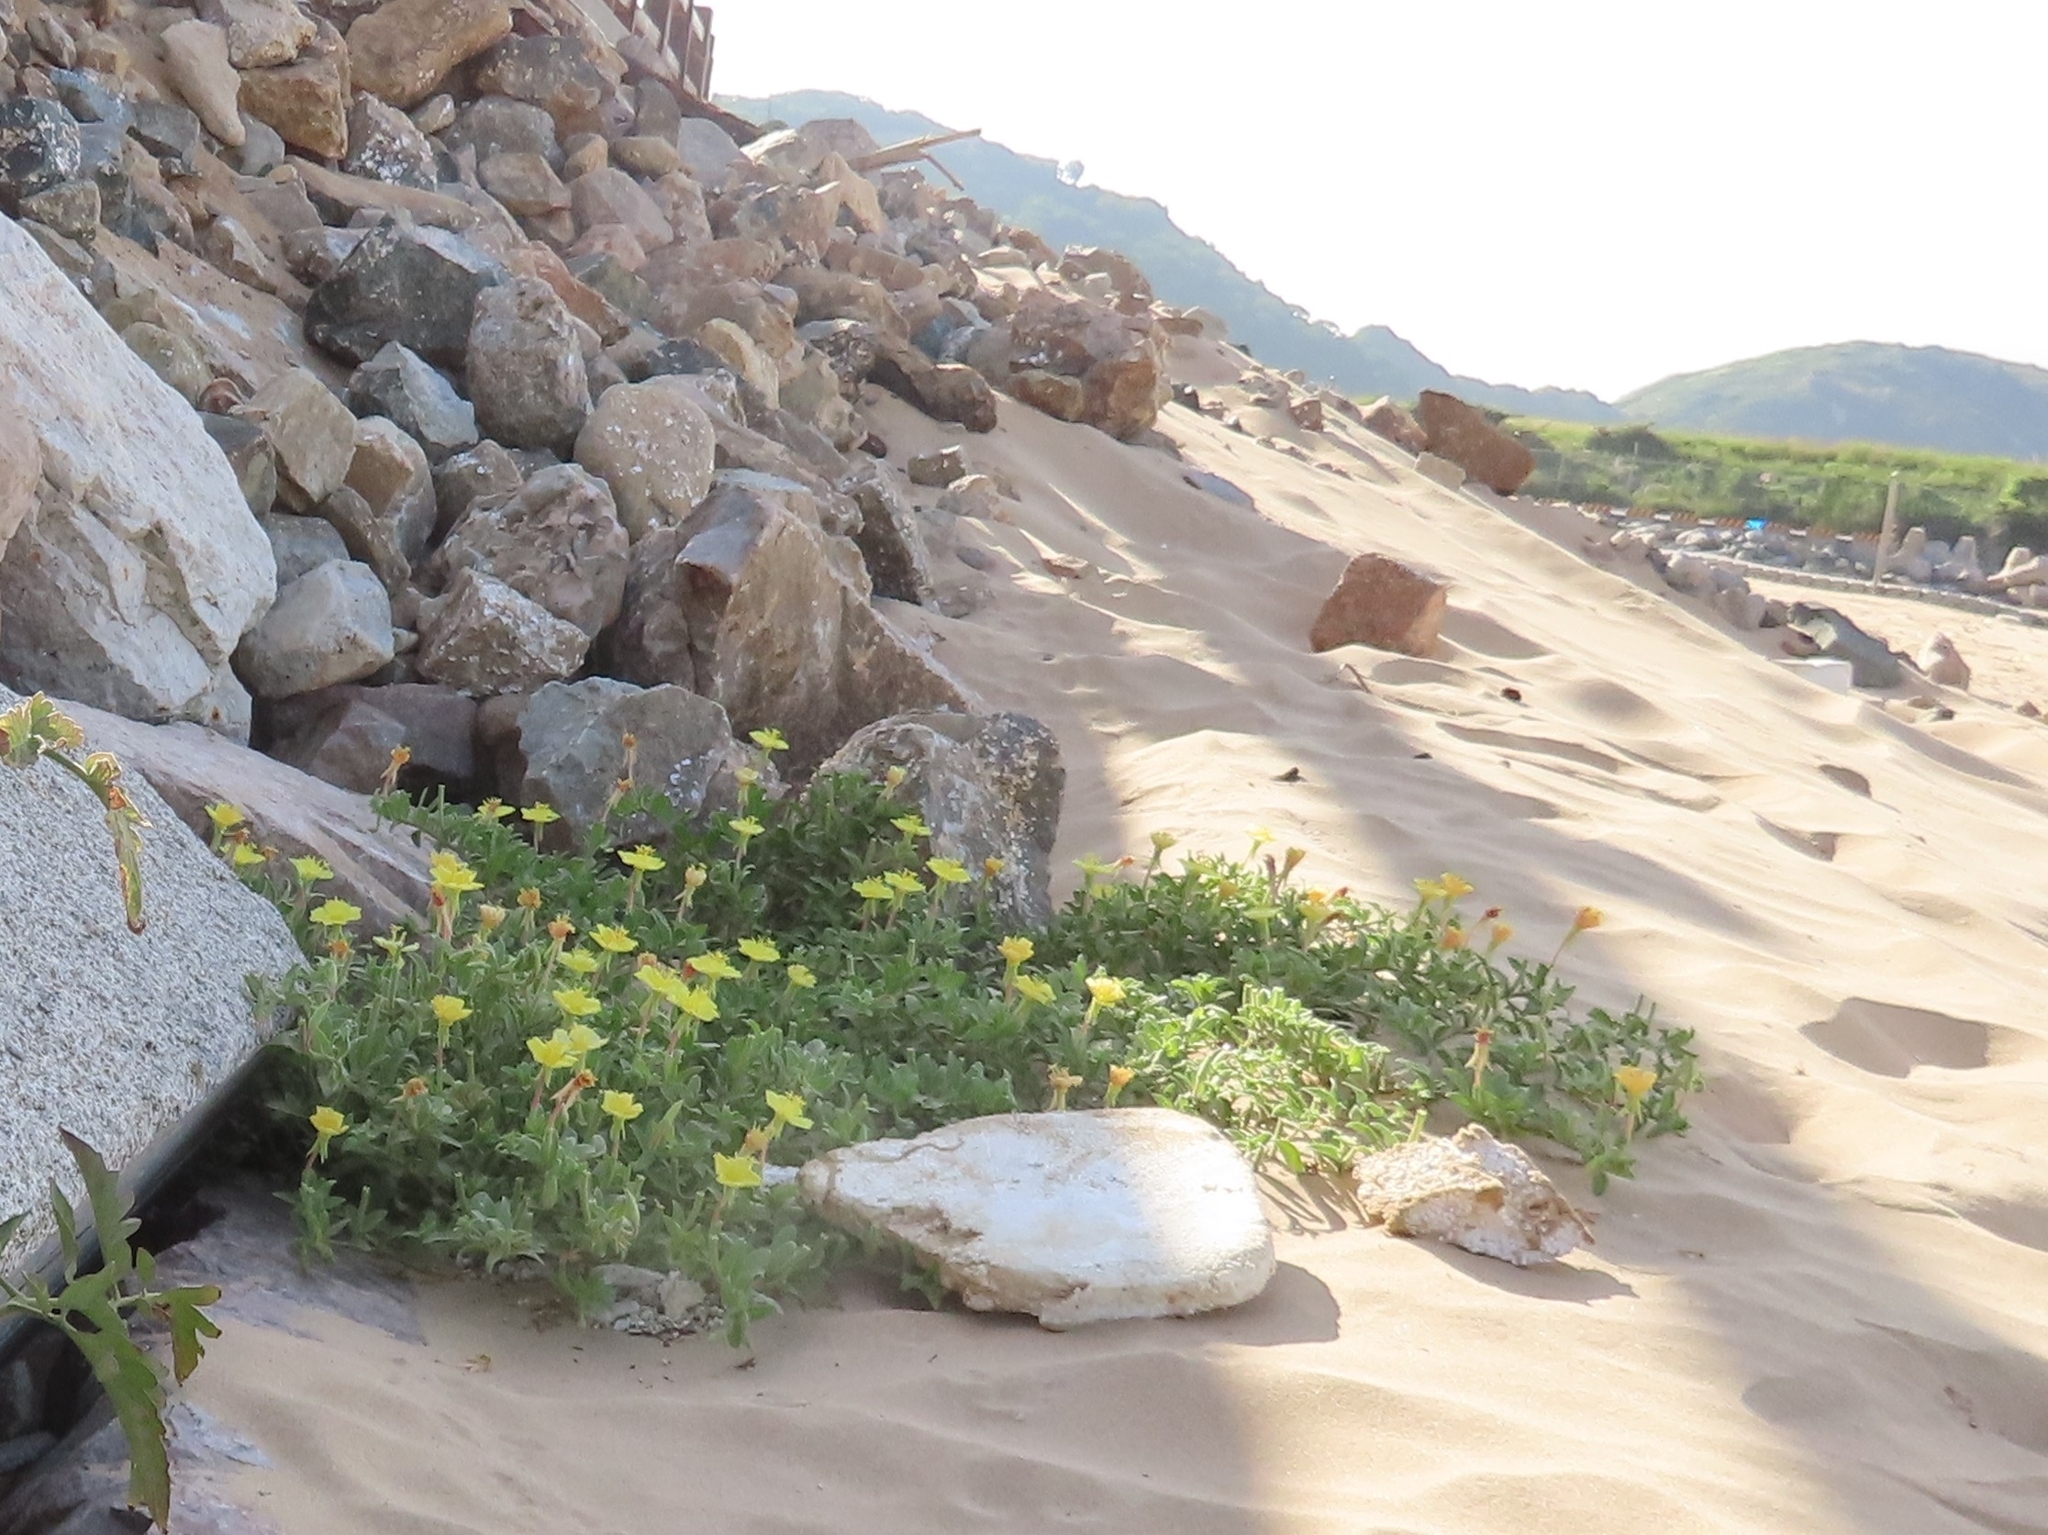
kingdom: Plantae
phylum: Tracheophyta
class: Magnoliopsida
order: Myrtales
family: Onagraceae
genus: Oenothera
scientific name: Oenothera laciniata
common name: Cut-leaved evening-primrose
